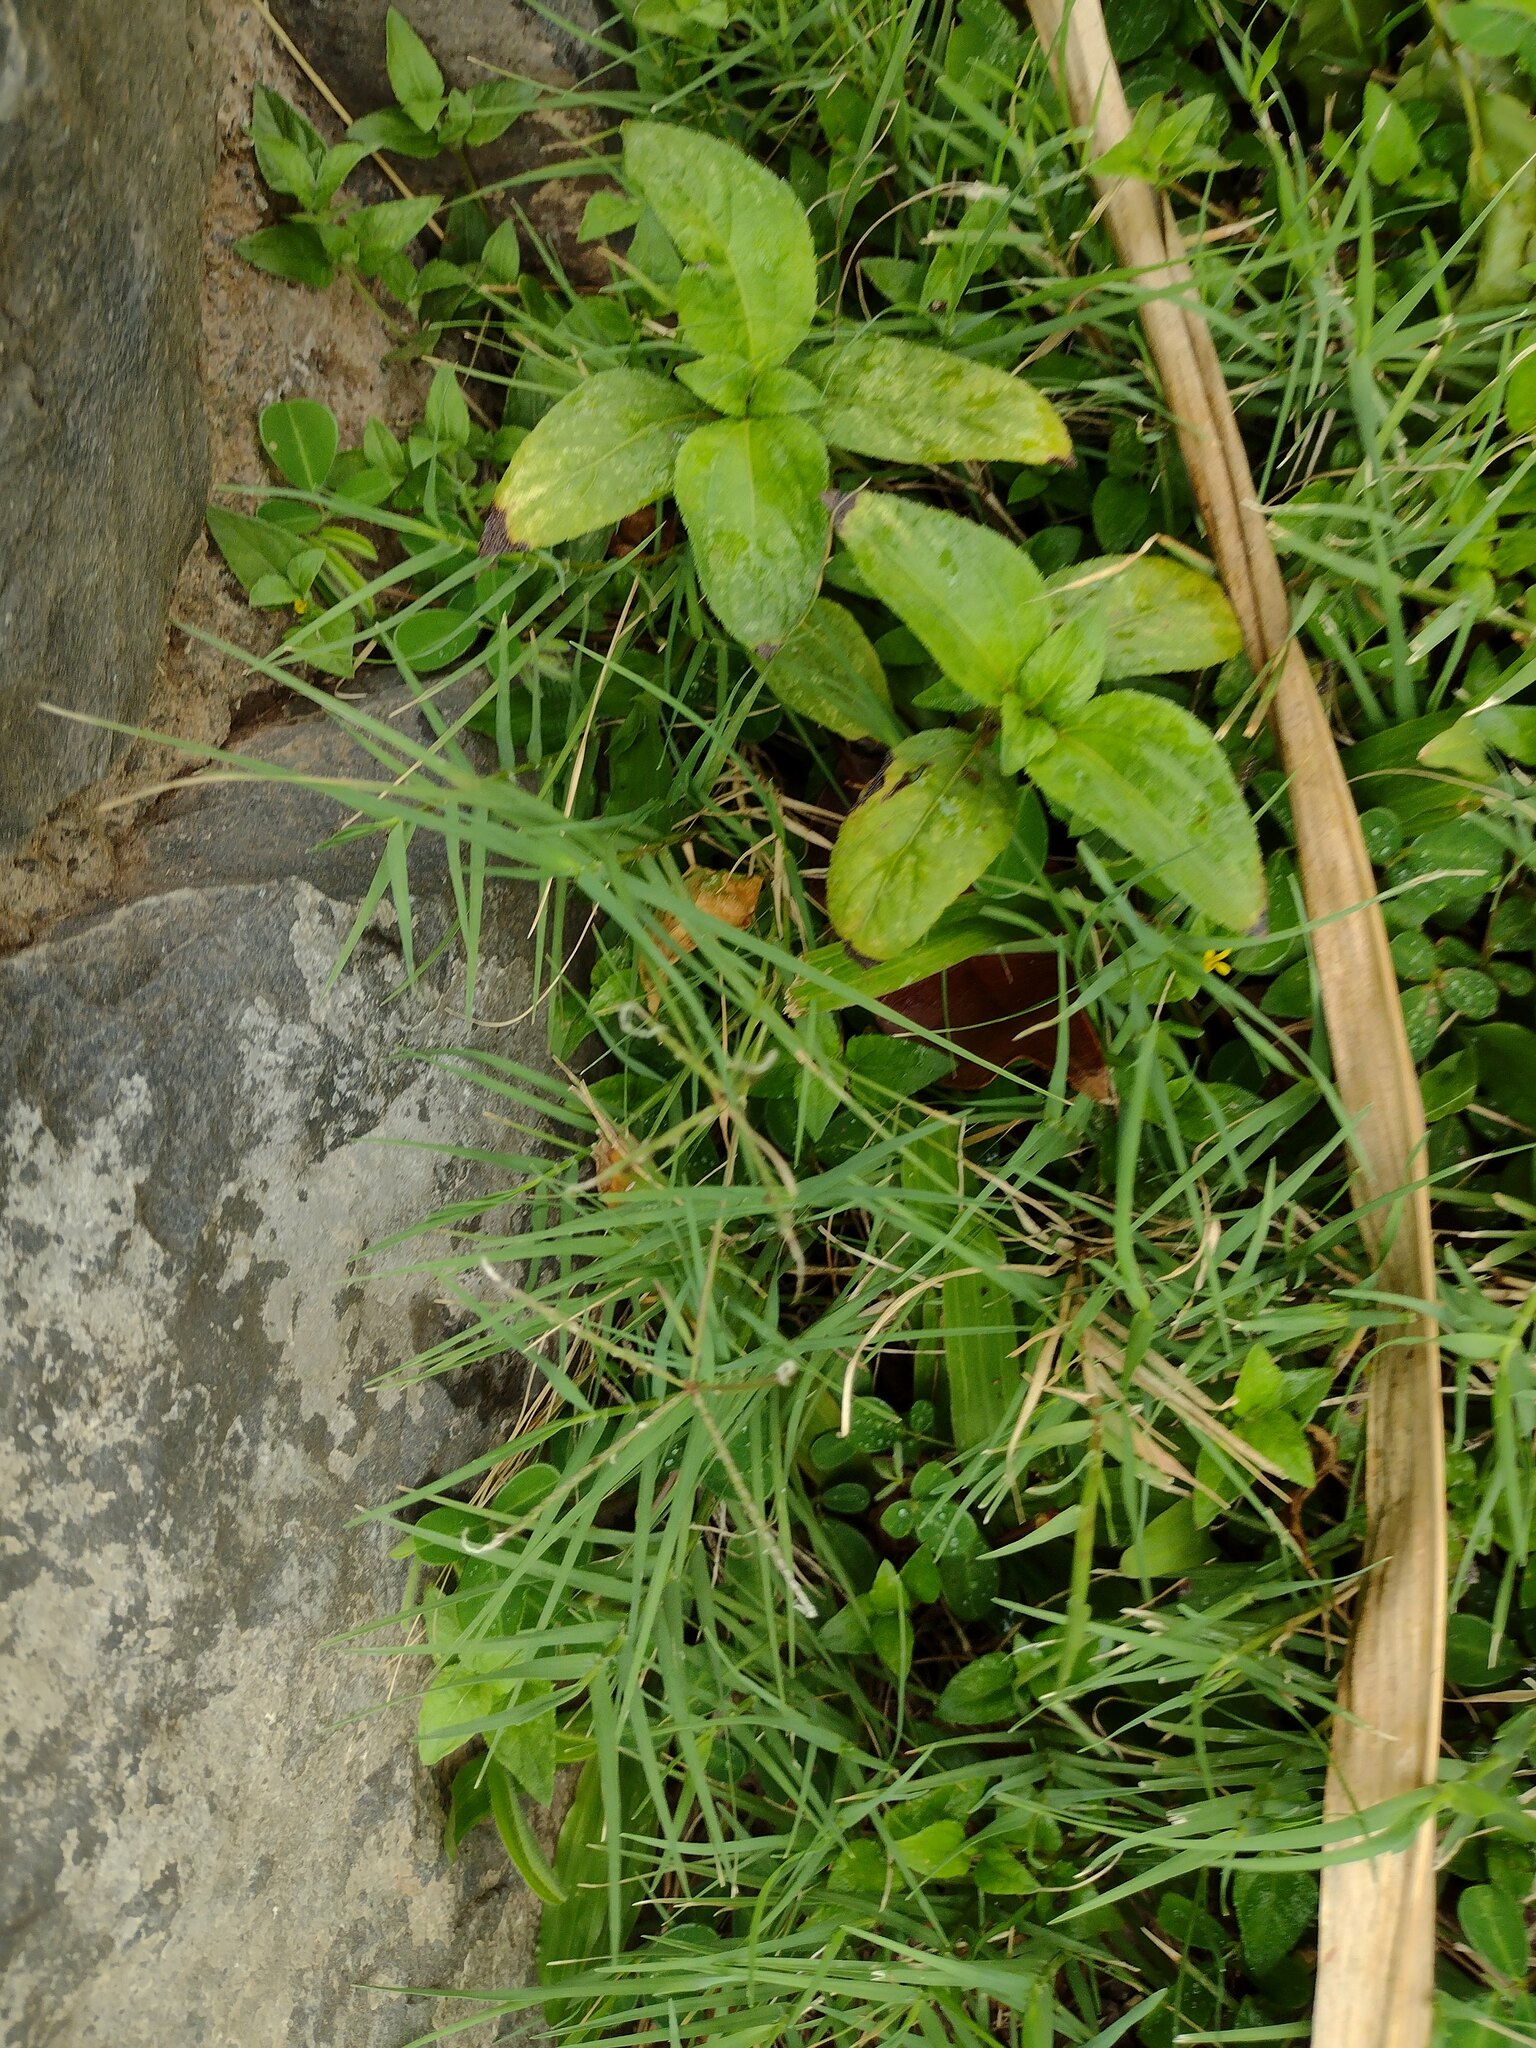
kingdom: Plantae
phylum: Tracheophyta
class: Liliopsida
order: Poales
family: Poaceae
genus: Cynodon
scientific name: Cynodon dactylon
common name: Bermuda grass
